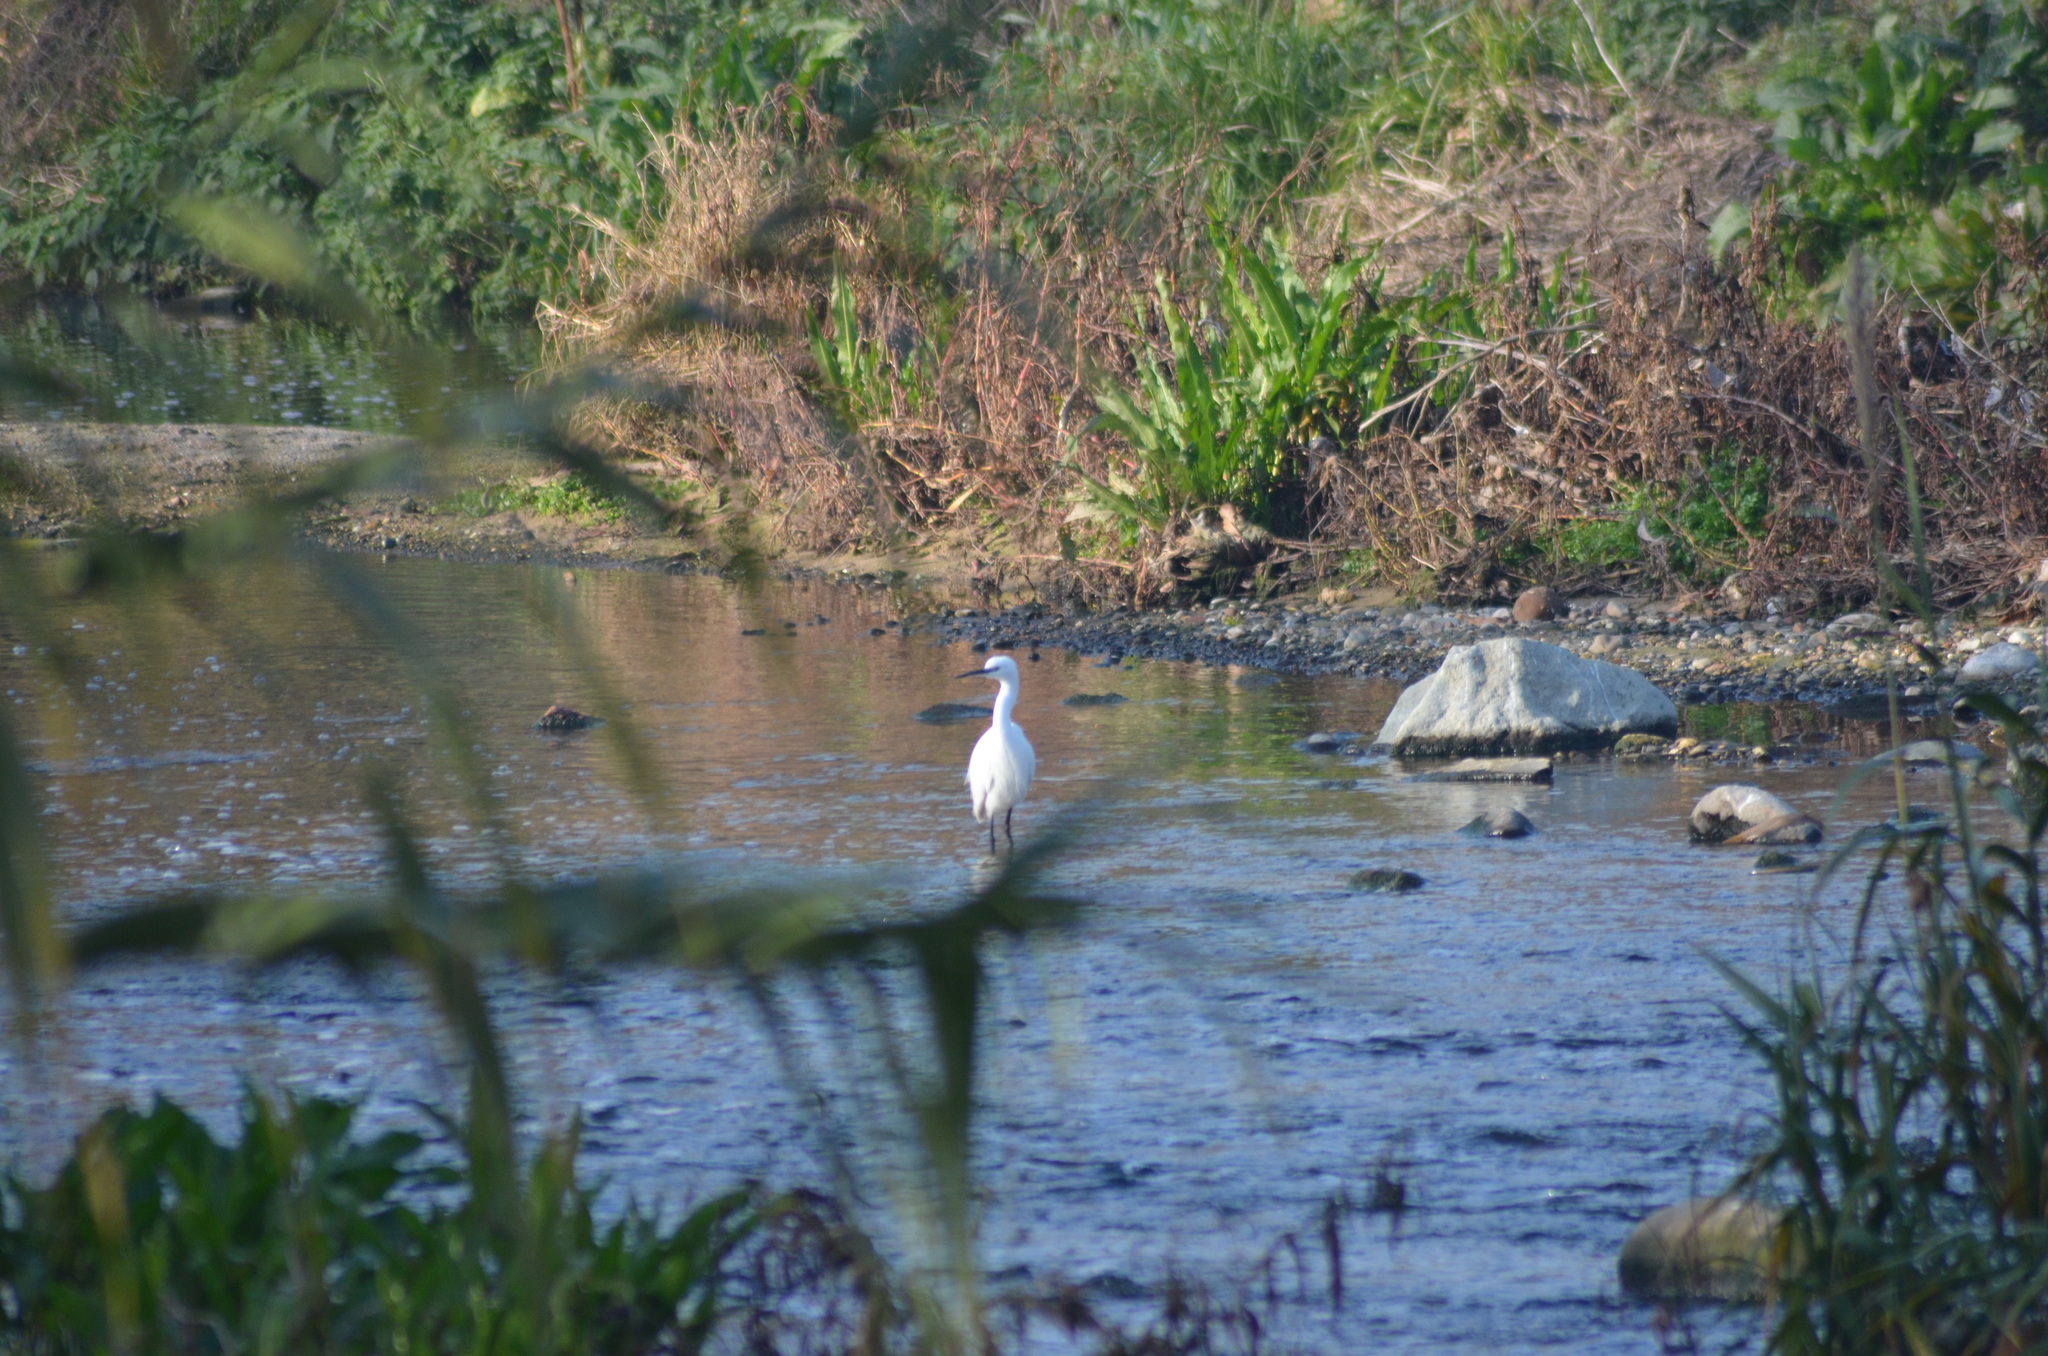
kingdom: Animalia
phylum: Chordata
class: Aves
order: Pelecaniformes
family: Ardeidae
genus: Egretta
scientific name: Egretta garzetta
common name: Little egret
